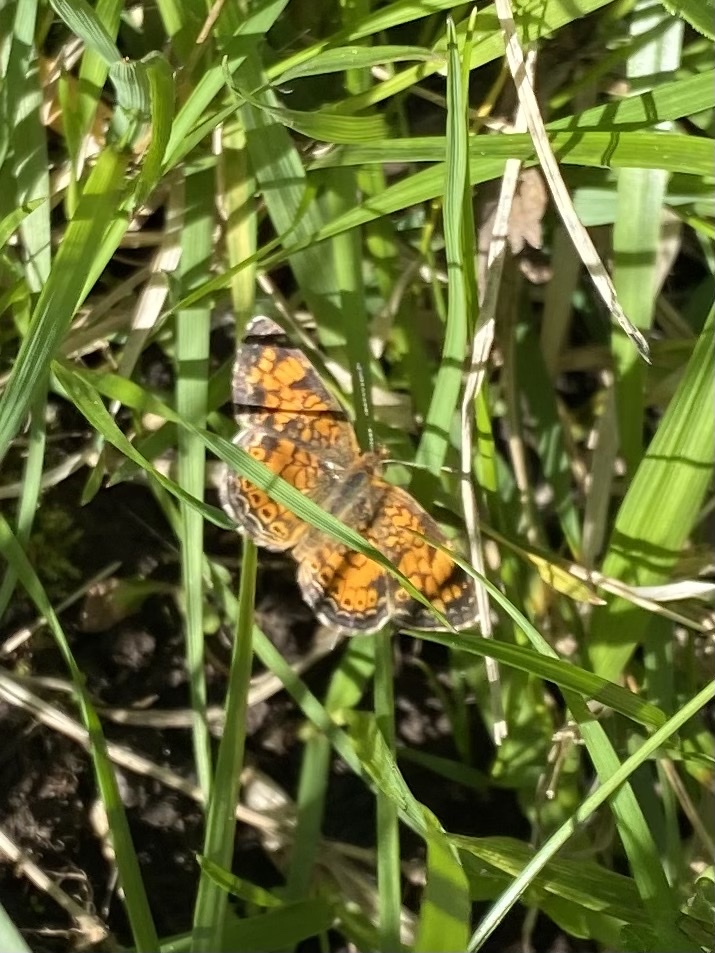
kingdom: Animalia
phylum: Arthropoda
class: Insecta
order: Lepidoptera
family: Nymphalidae
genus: Phyciodes
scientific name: Phyciodes tharos
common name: Pearl crescent
